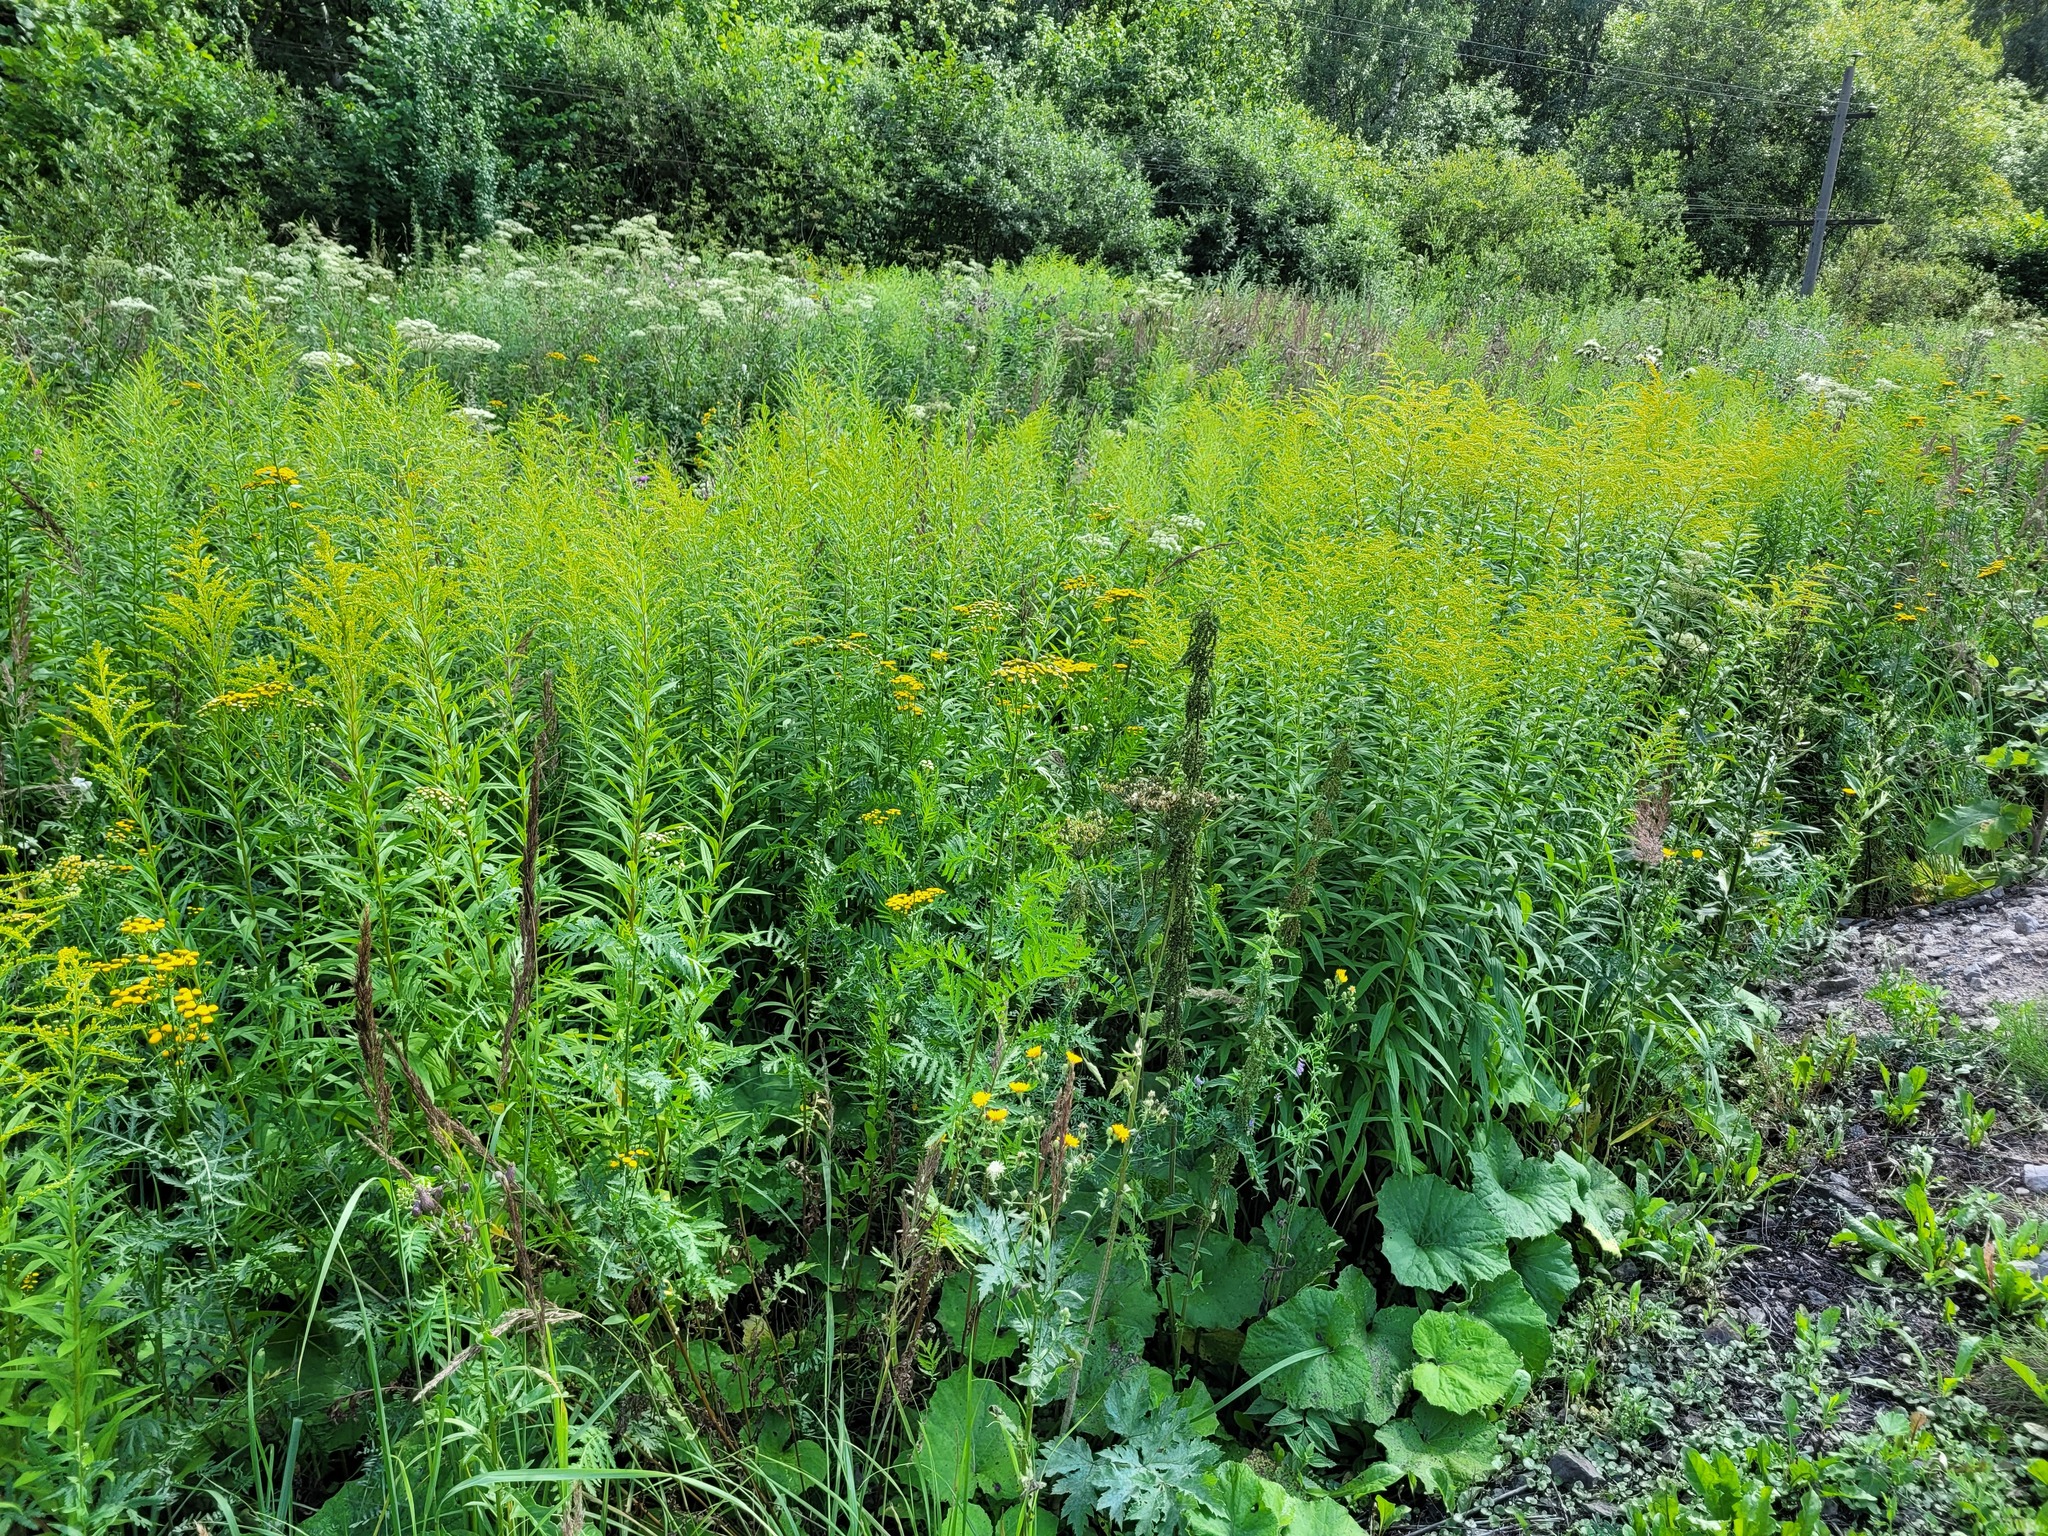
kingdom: Plantae
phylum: Tracheophyta
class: Magnoliopsida
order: Asterales
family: Asteraceae
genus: Solidago
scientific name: Solidago canadensis
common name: Canada goldenrod
